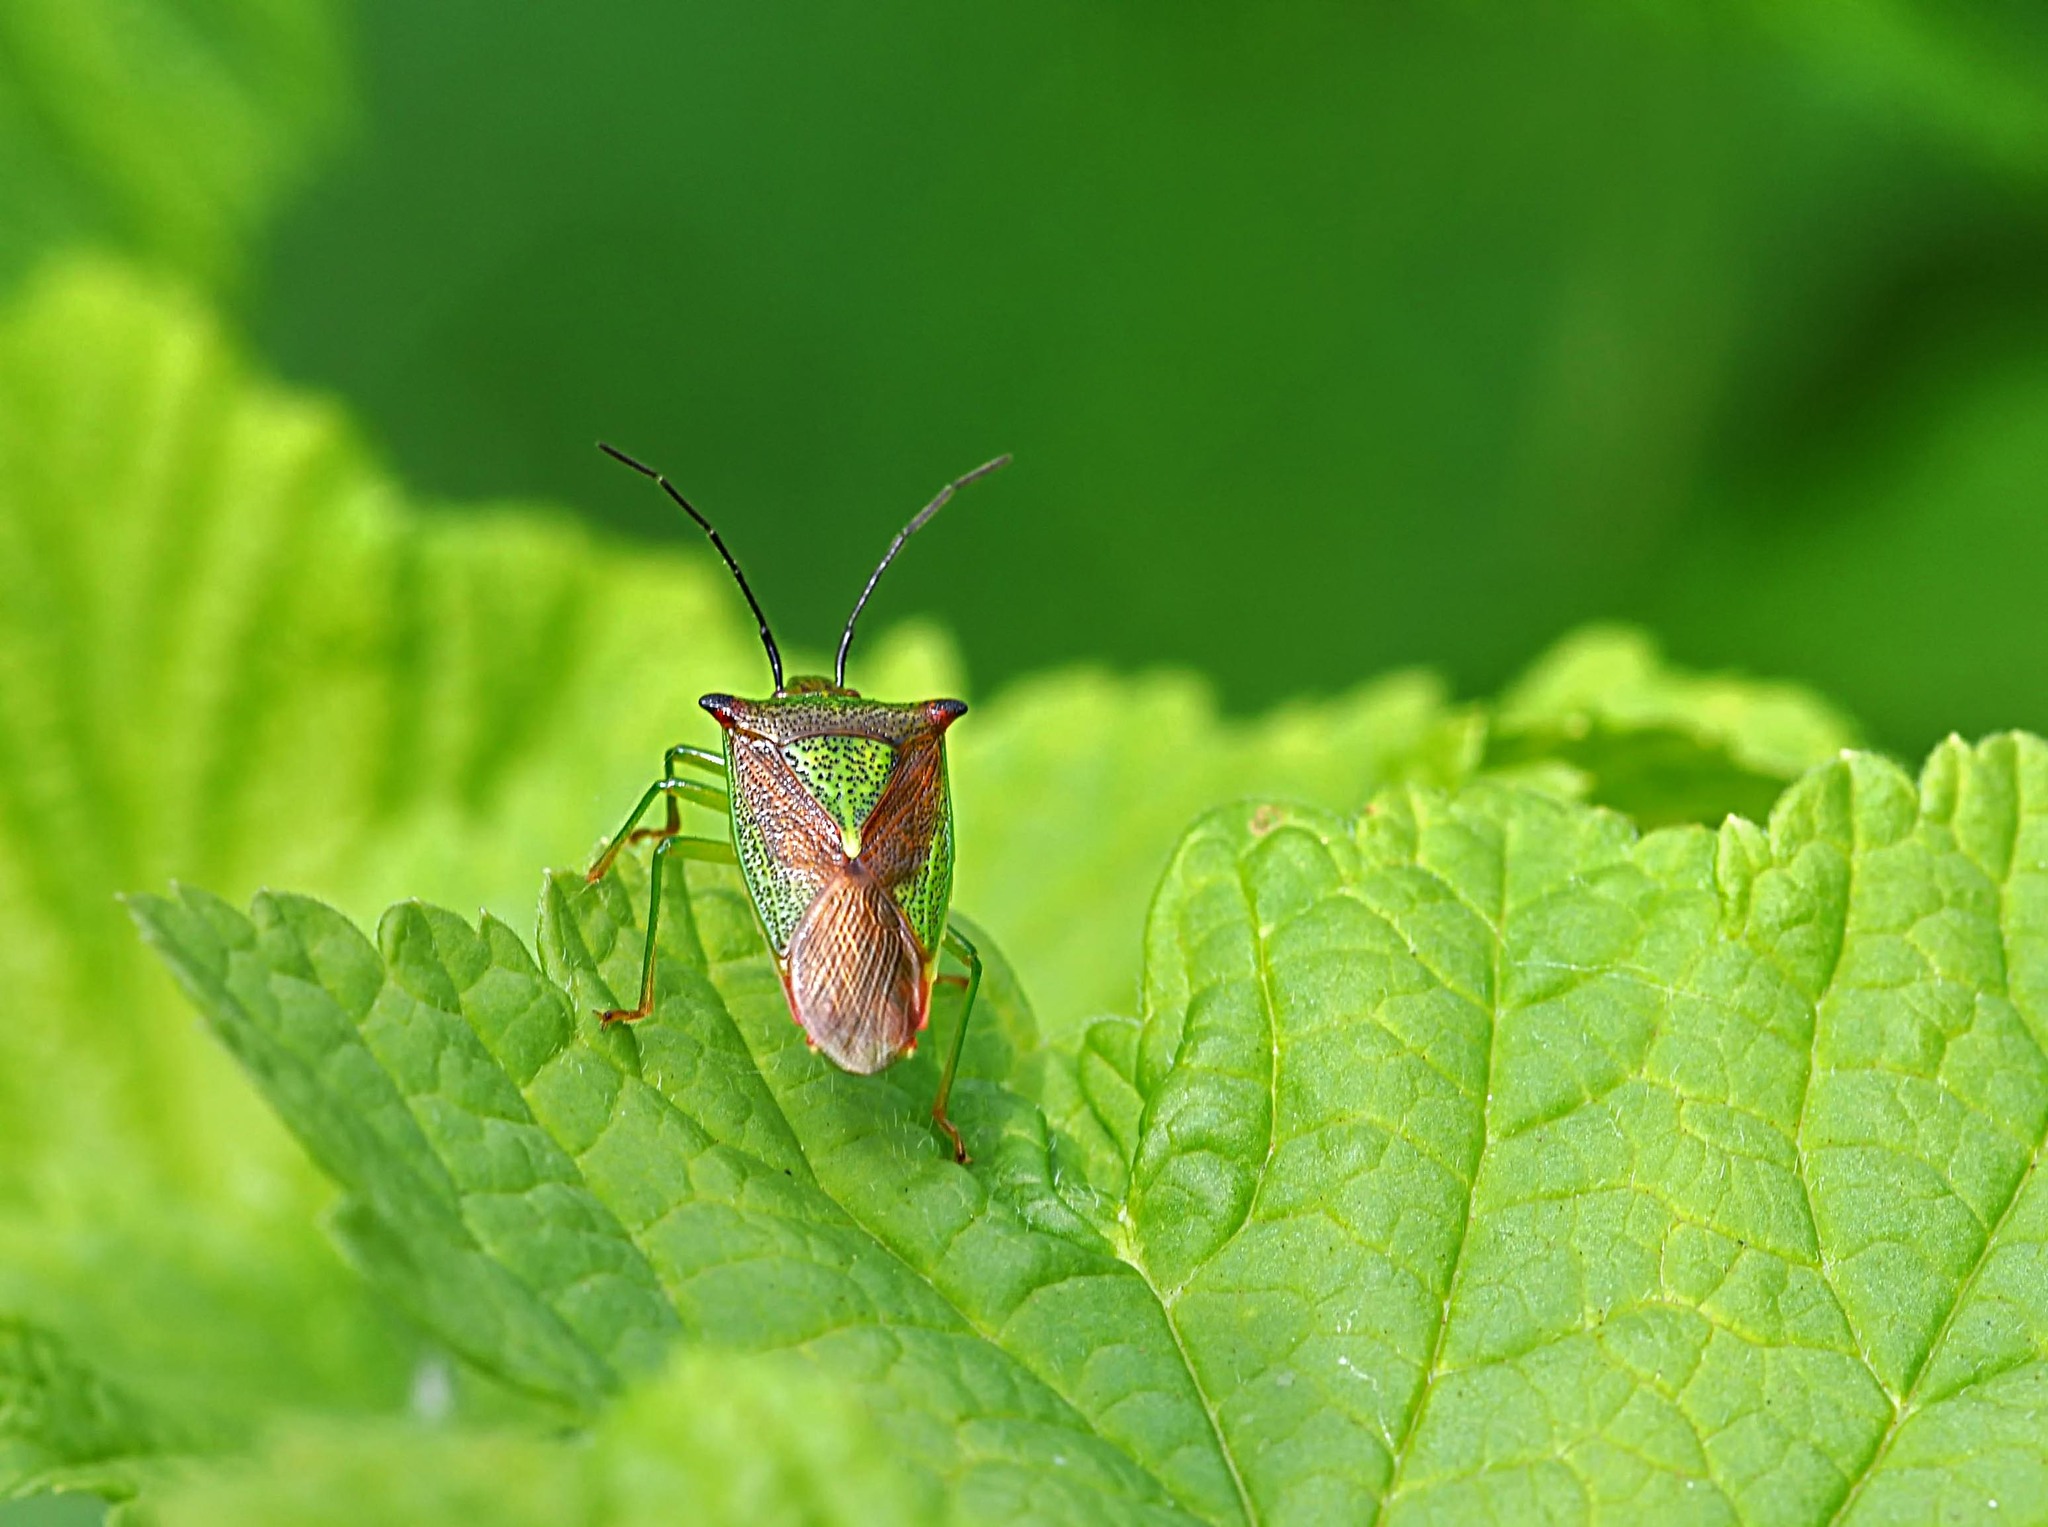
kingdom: Animalia
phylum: Arthropoda
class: Insecta
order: Hemiptera
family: Acanthosomatidae
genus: Acanthosoma
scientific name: Acanthosoma haemorrhoidale
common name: Hawthorn shieldbug
